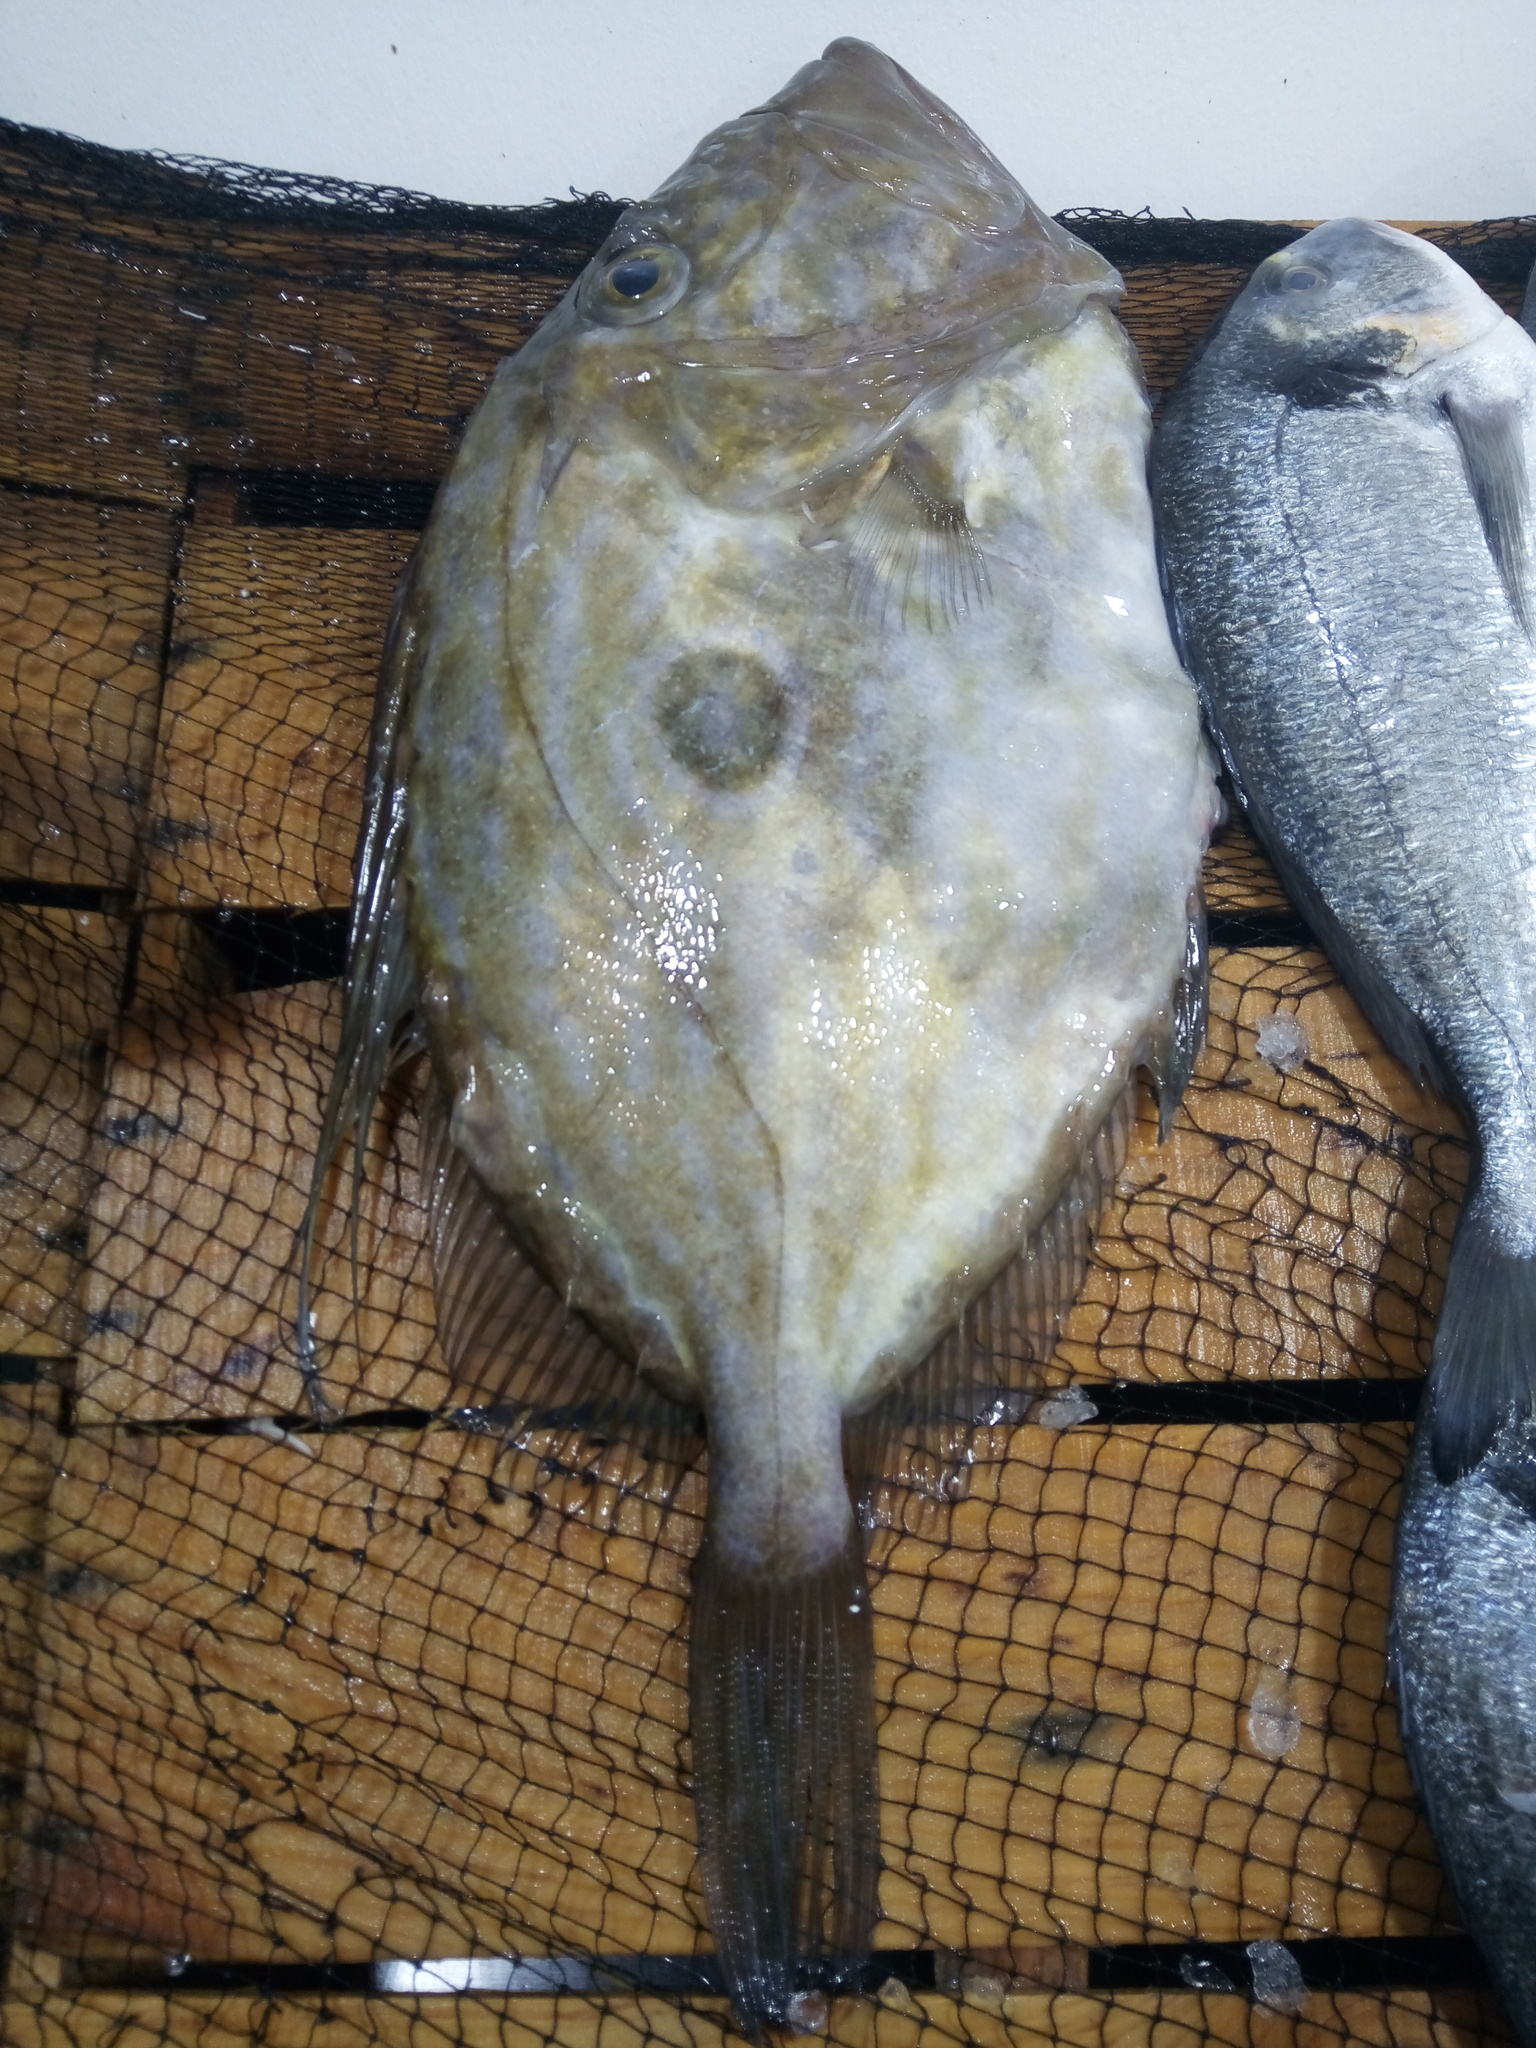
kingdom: Animalia
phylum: Chordata
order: Zeiformes
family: Zeidae
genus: Zeus
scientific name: Zeus faber
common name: John dory
